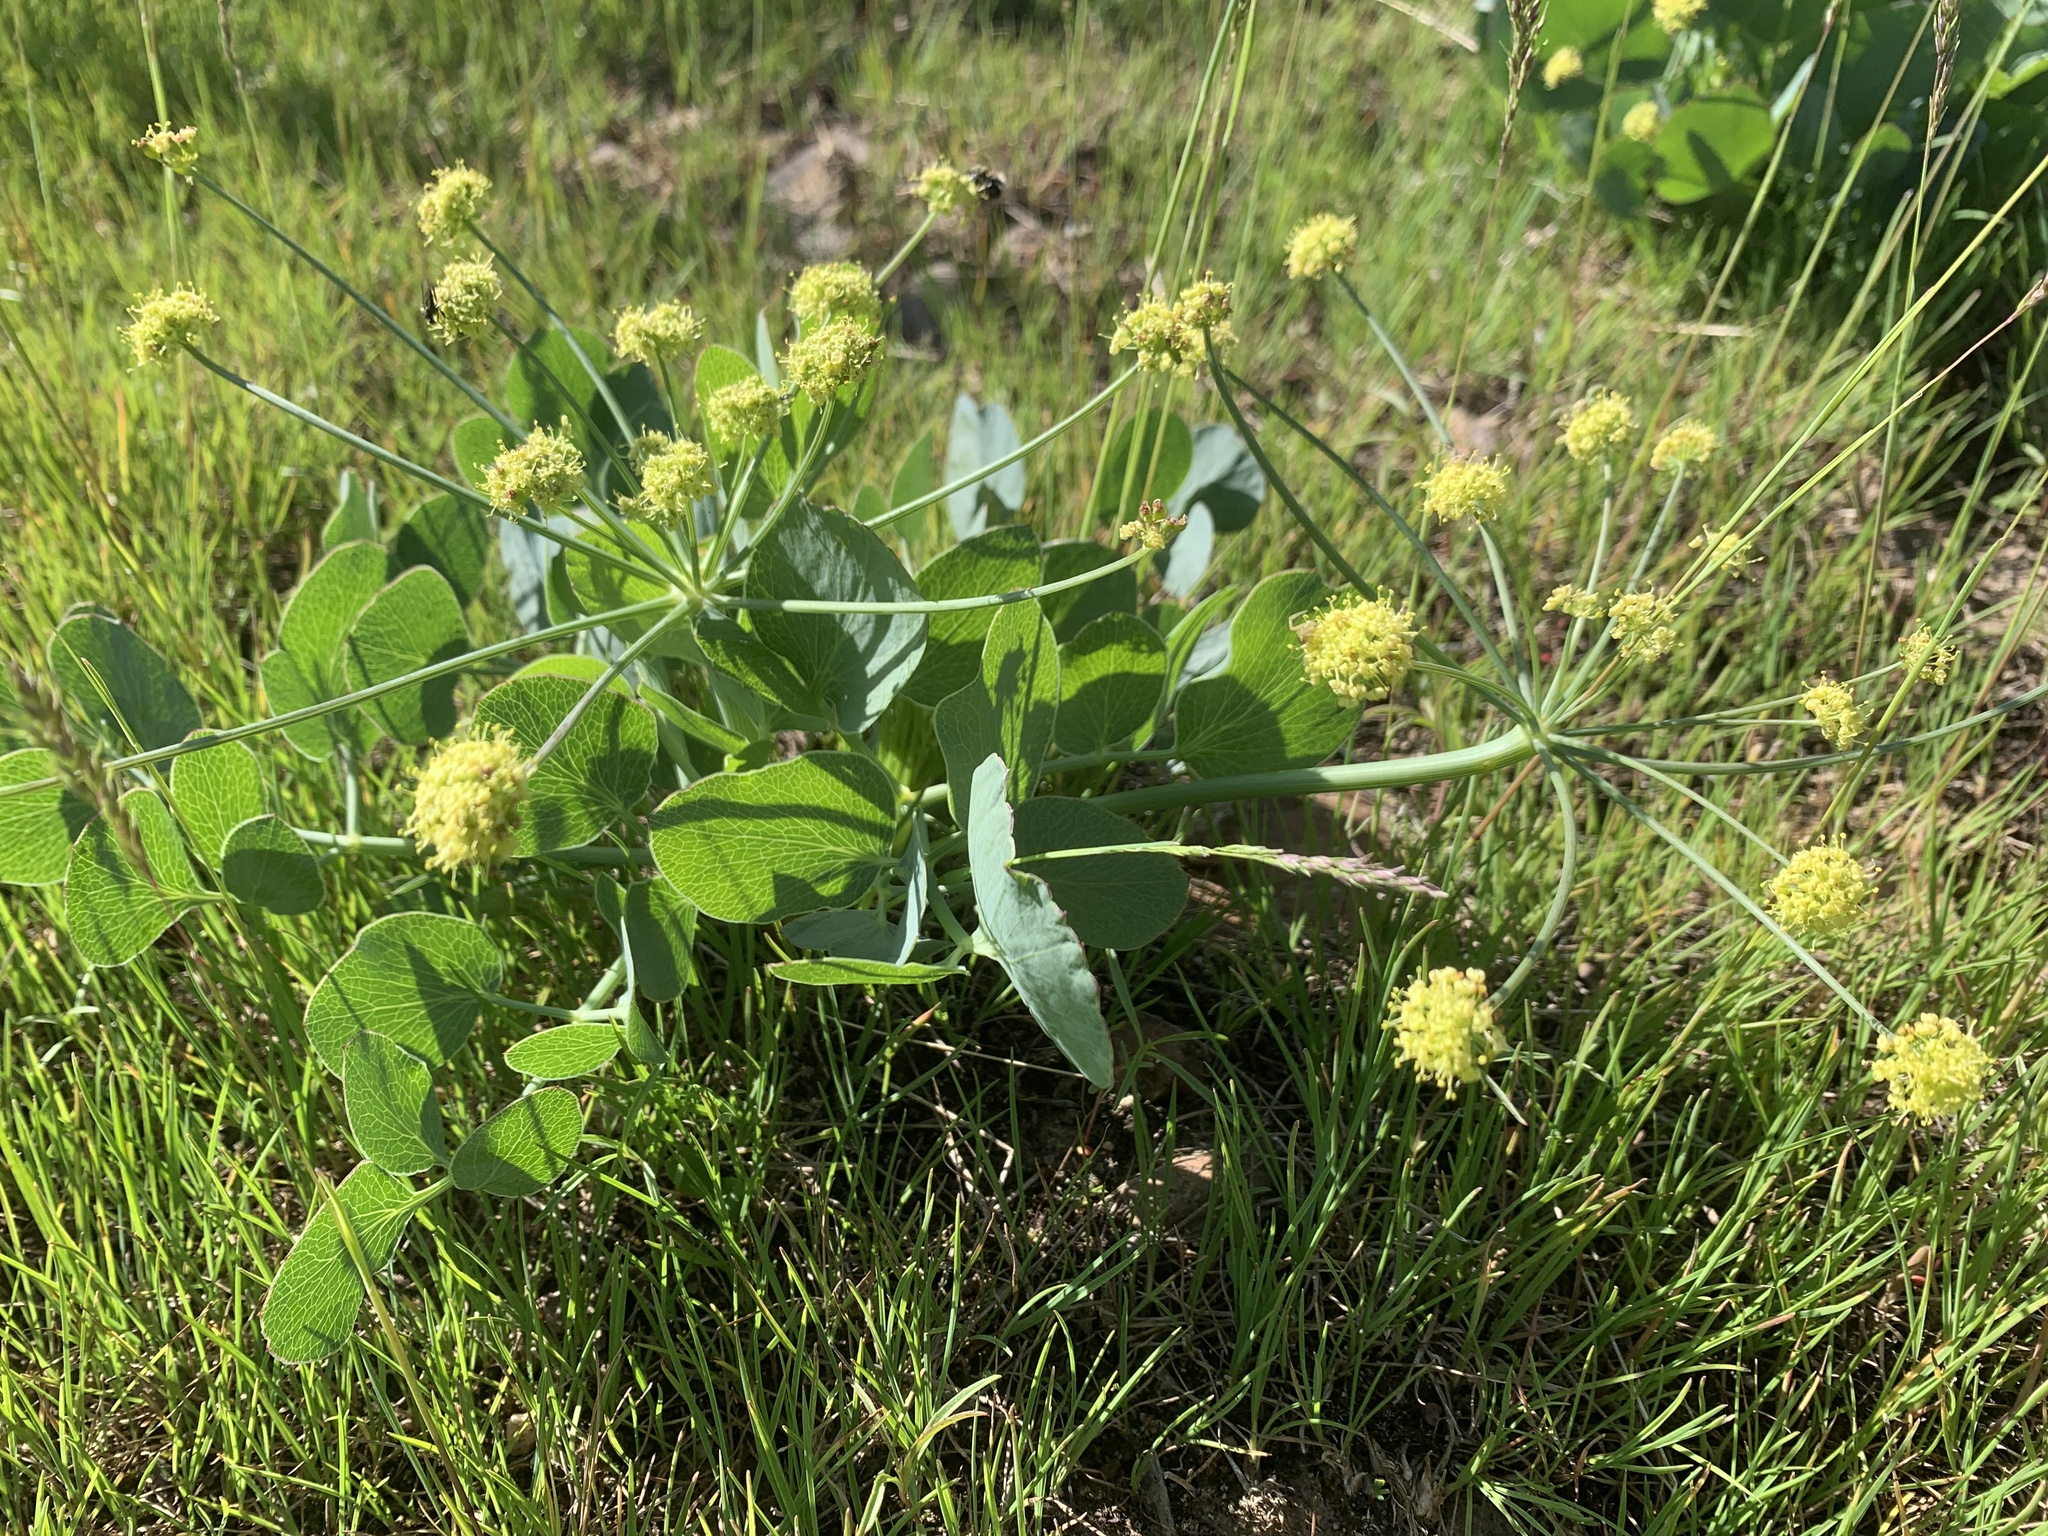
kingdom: Plantae
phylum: Tracheophyta
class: Magnoliopsida
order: Apiales
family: Apiaceae
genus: Lomatium
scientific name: Lomatium nudicaule
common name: Pestle lomatium
